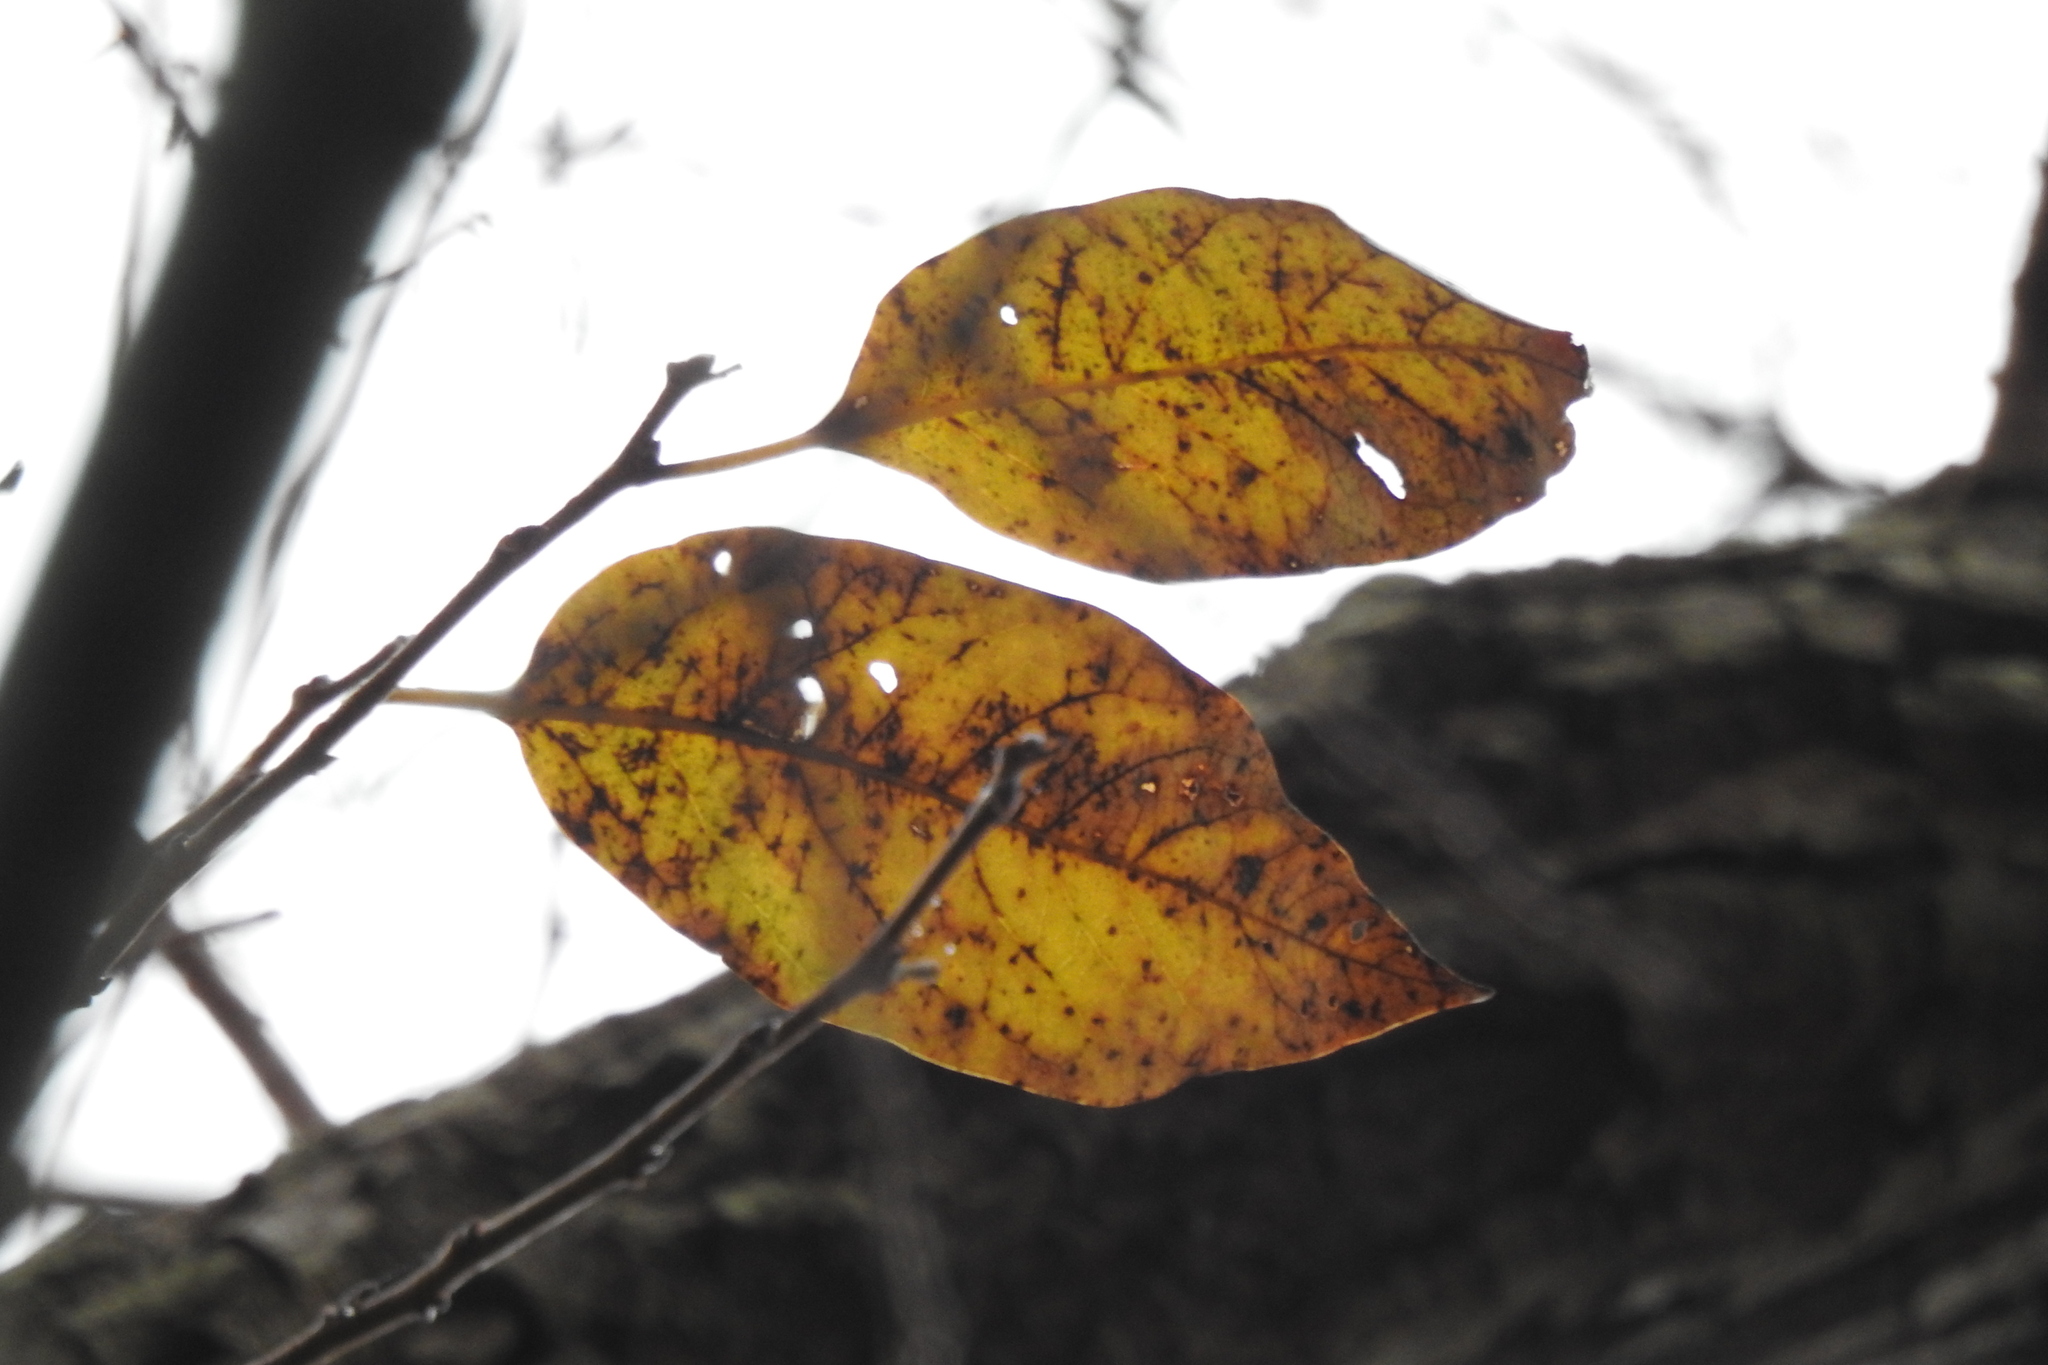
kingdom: Plantae
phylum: Tracheophyta
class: Magnoliopsida
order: Ericales
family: Ebenaceae
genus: Diospyros
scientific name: Diospyros virginiana
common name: Persimmon
